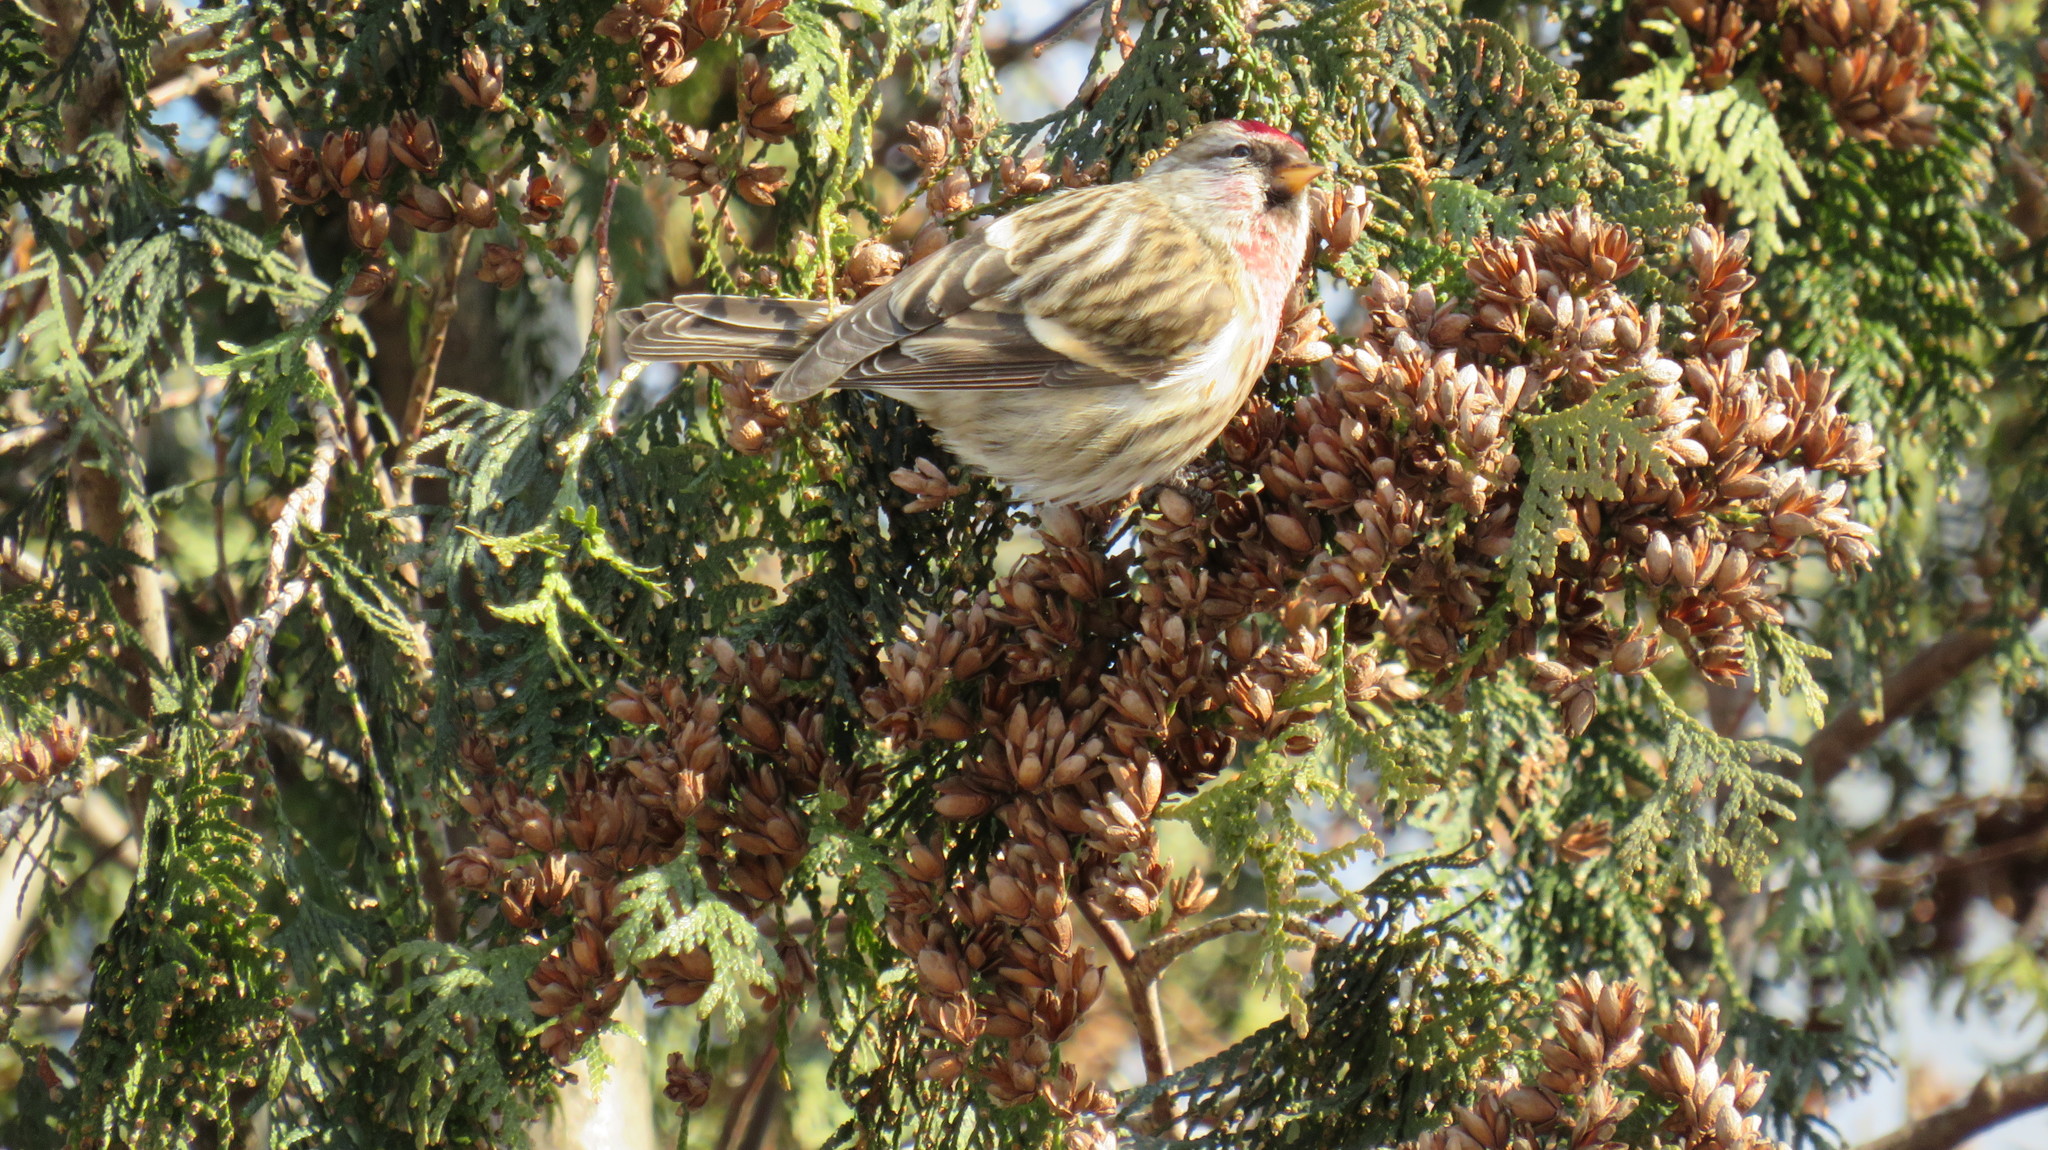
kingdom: Animalia
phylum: Chordata
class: Aves
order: Passeriformes
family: Fringillidae
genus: Acanthis
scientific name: Acanthis flammea
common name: Common redpoll
